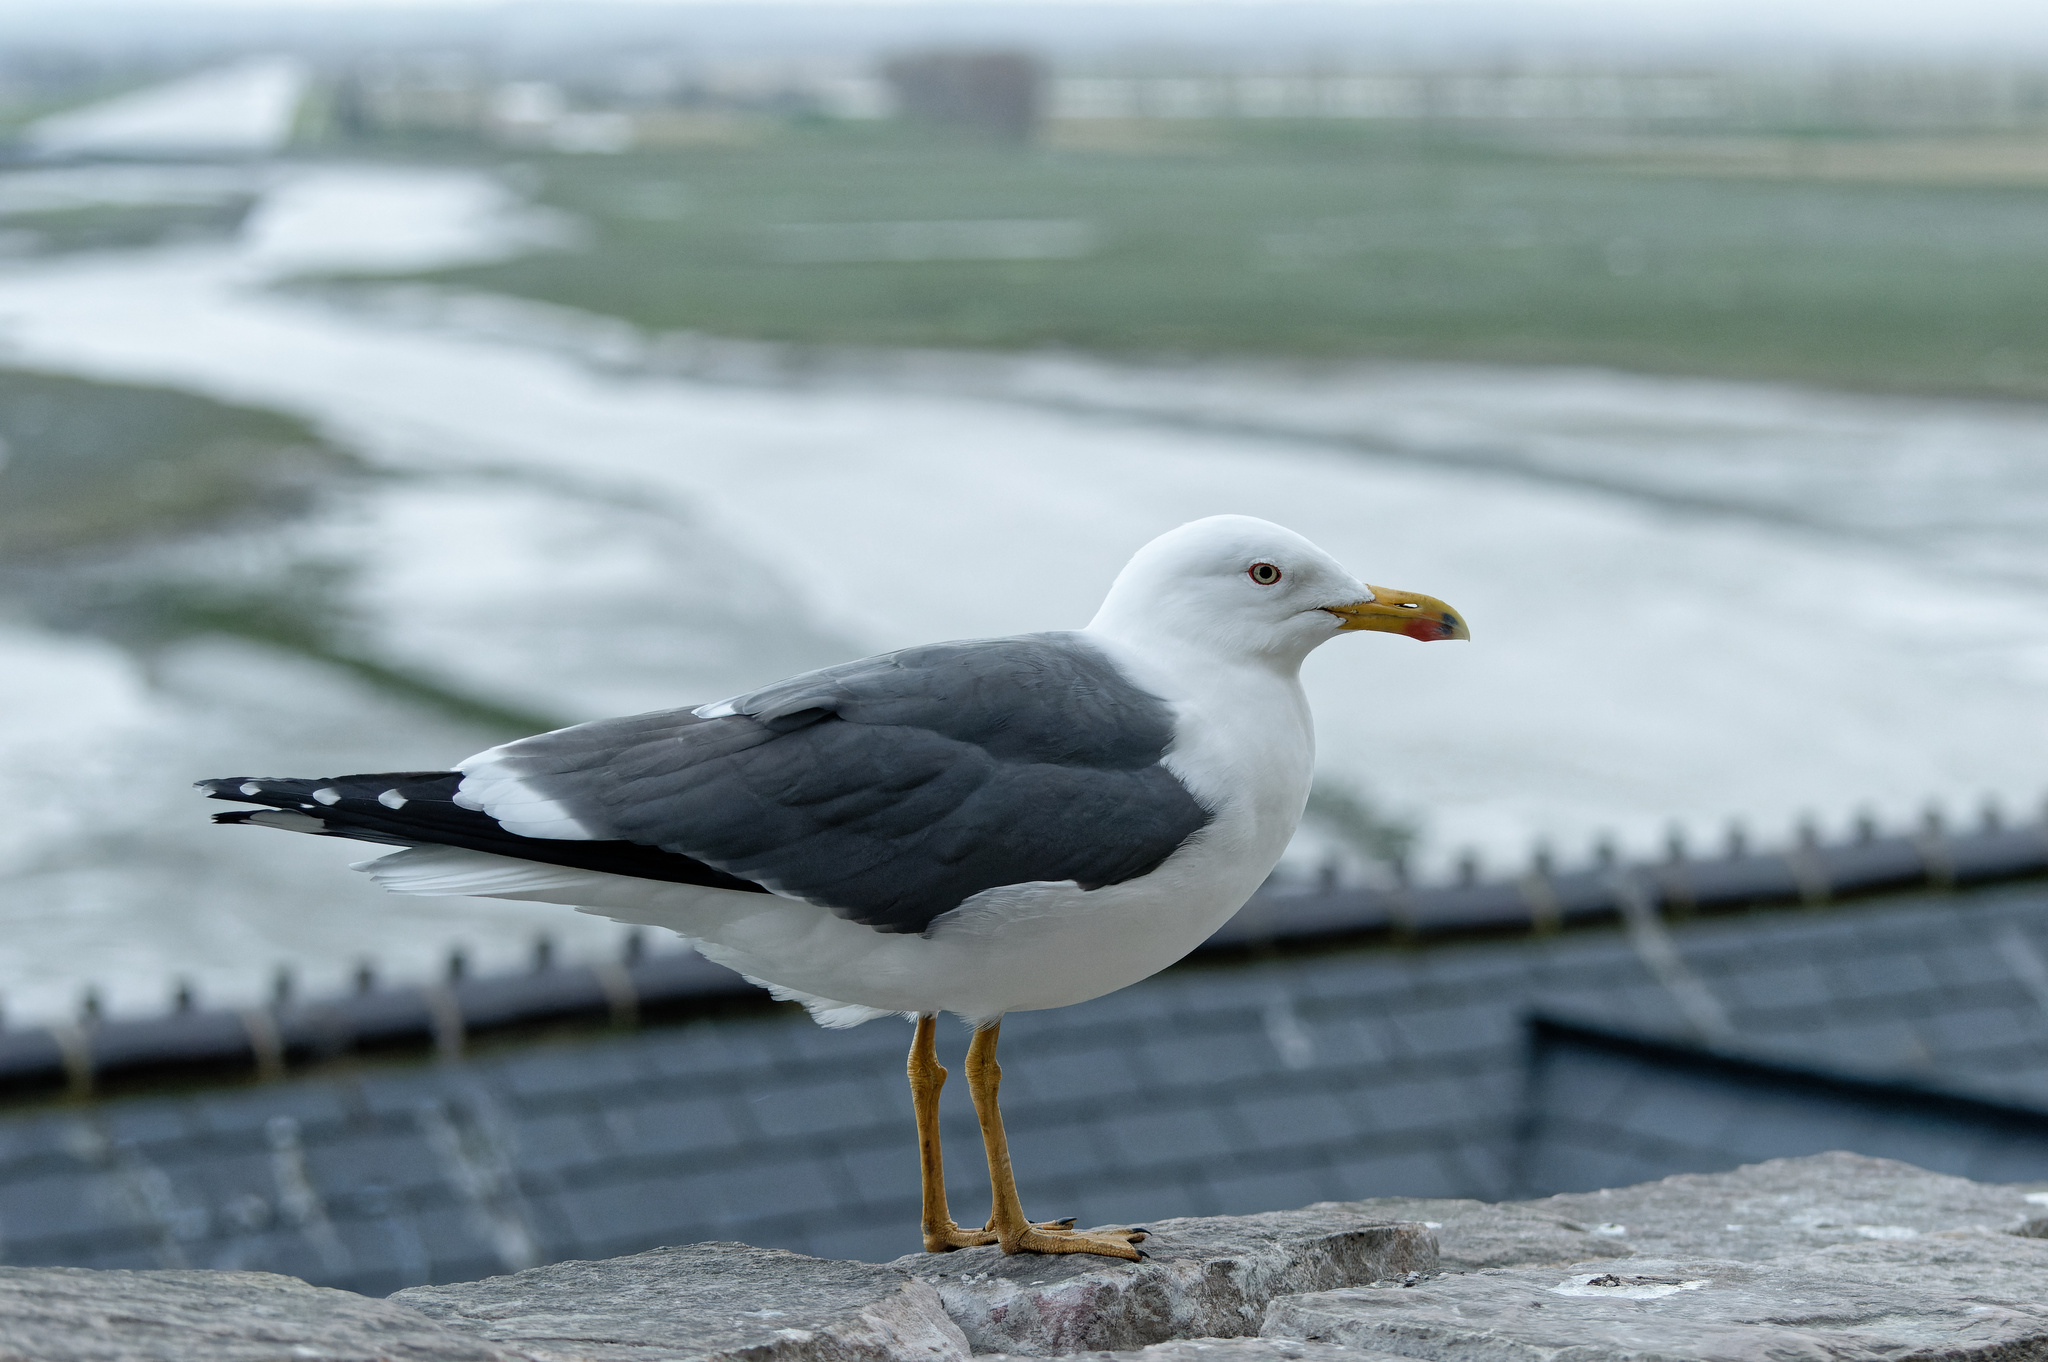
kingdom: Animalia
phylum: Chordata
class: Aves
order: Charadriiformes
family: Laridae
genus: Larus
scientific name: Larus fuscus
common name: Lesser black-backed gull
